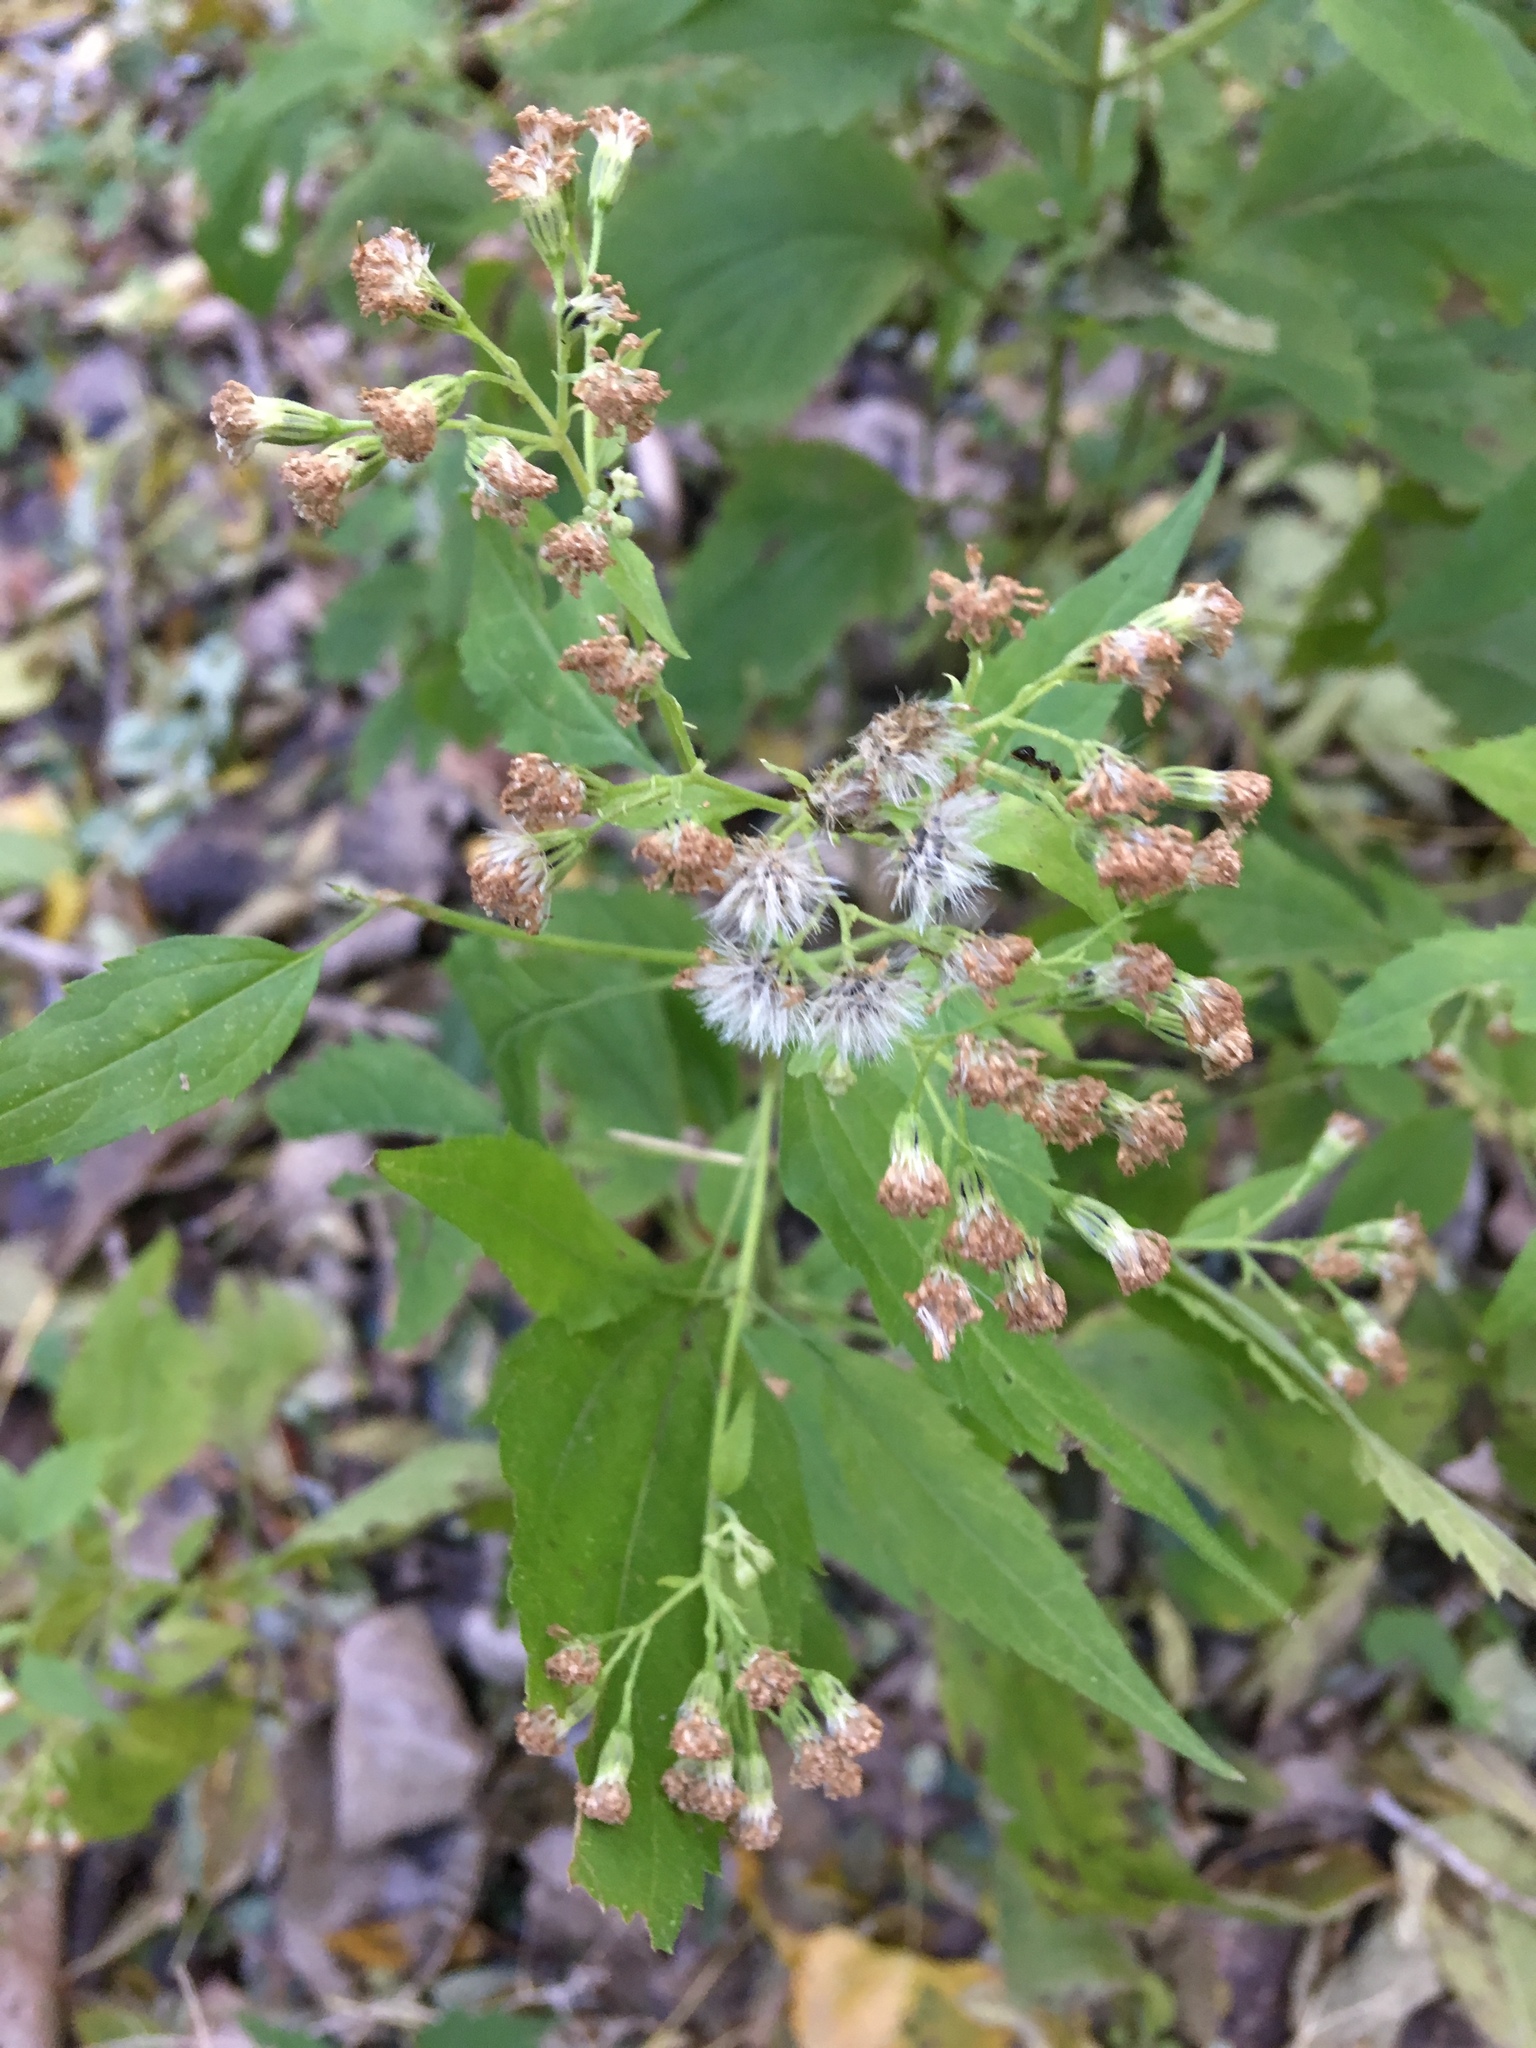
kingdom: Plantae
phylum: Tracheophyta
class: Magnoliopsida
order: Asterales
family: Asteraceae
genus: Ageratina
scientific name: Ageratina altissima
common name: White snakeroot
